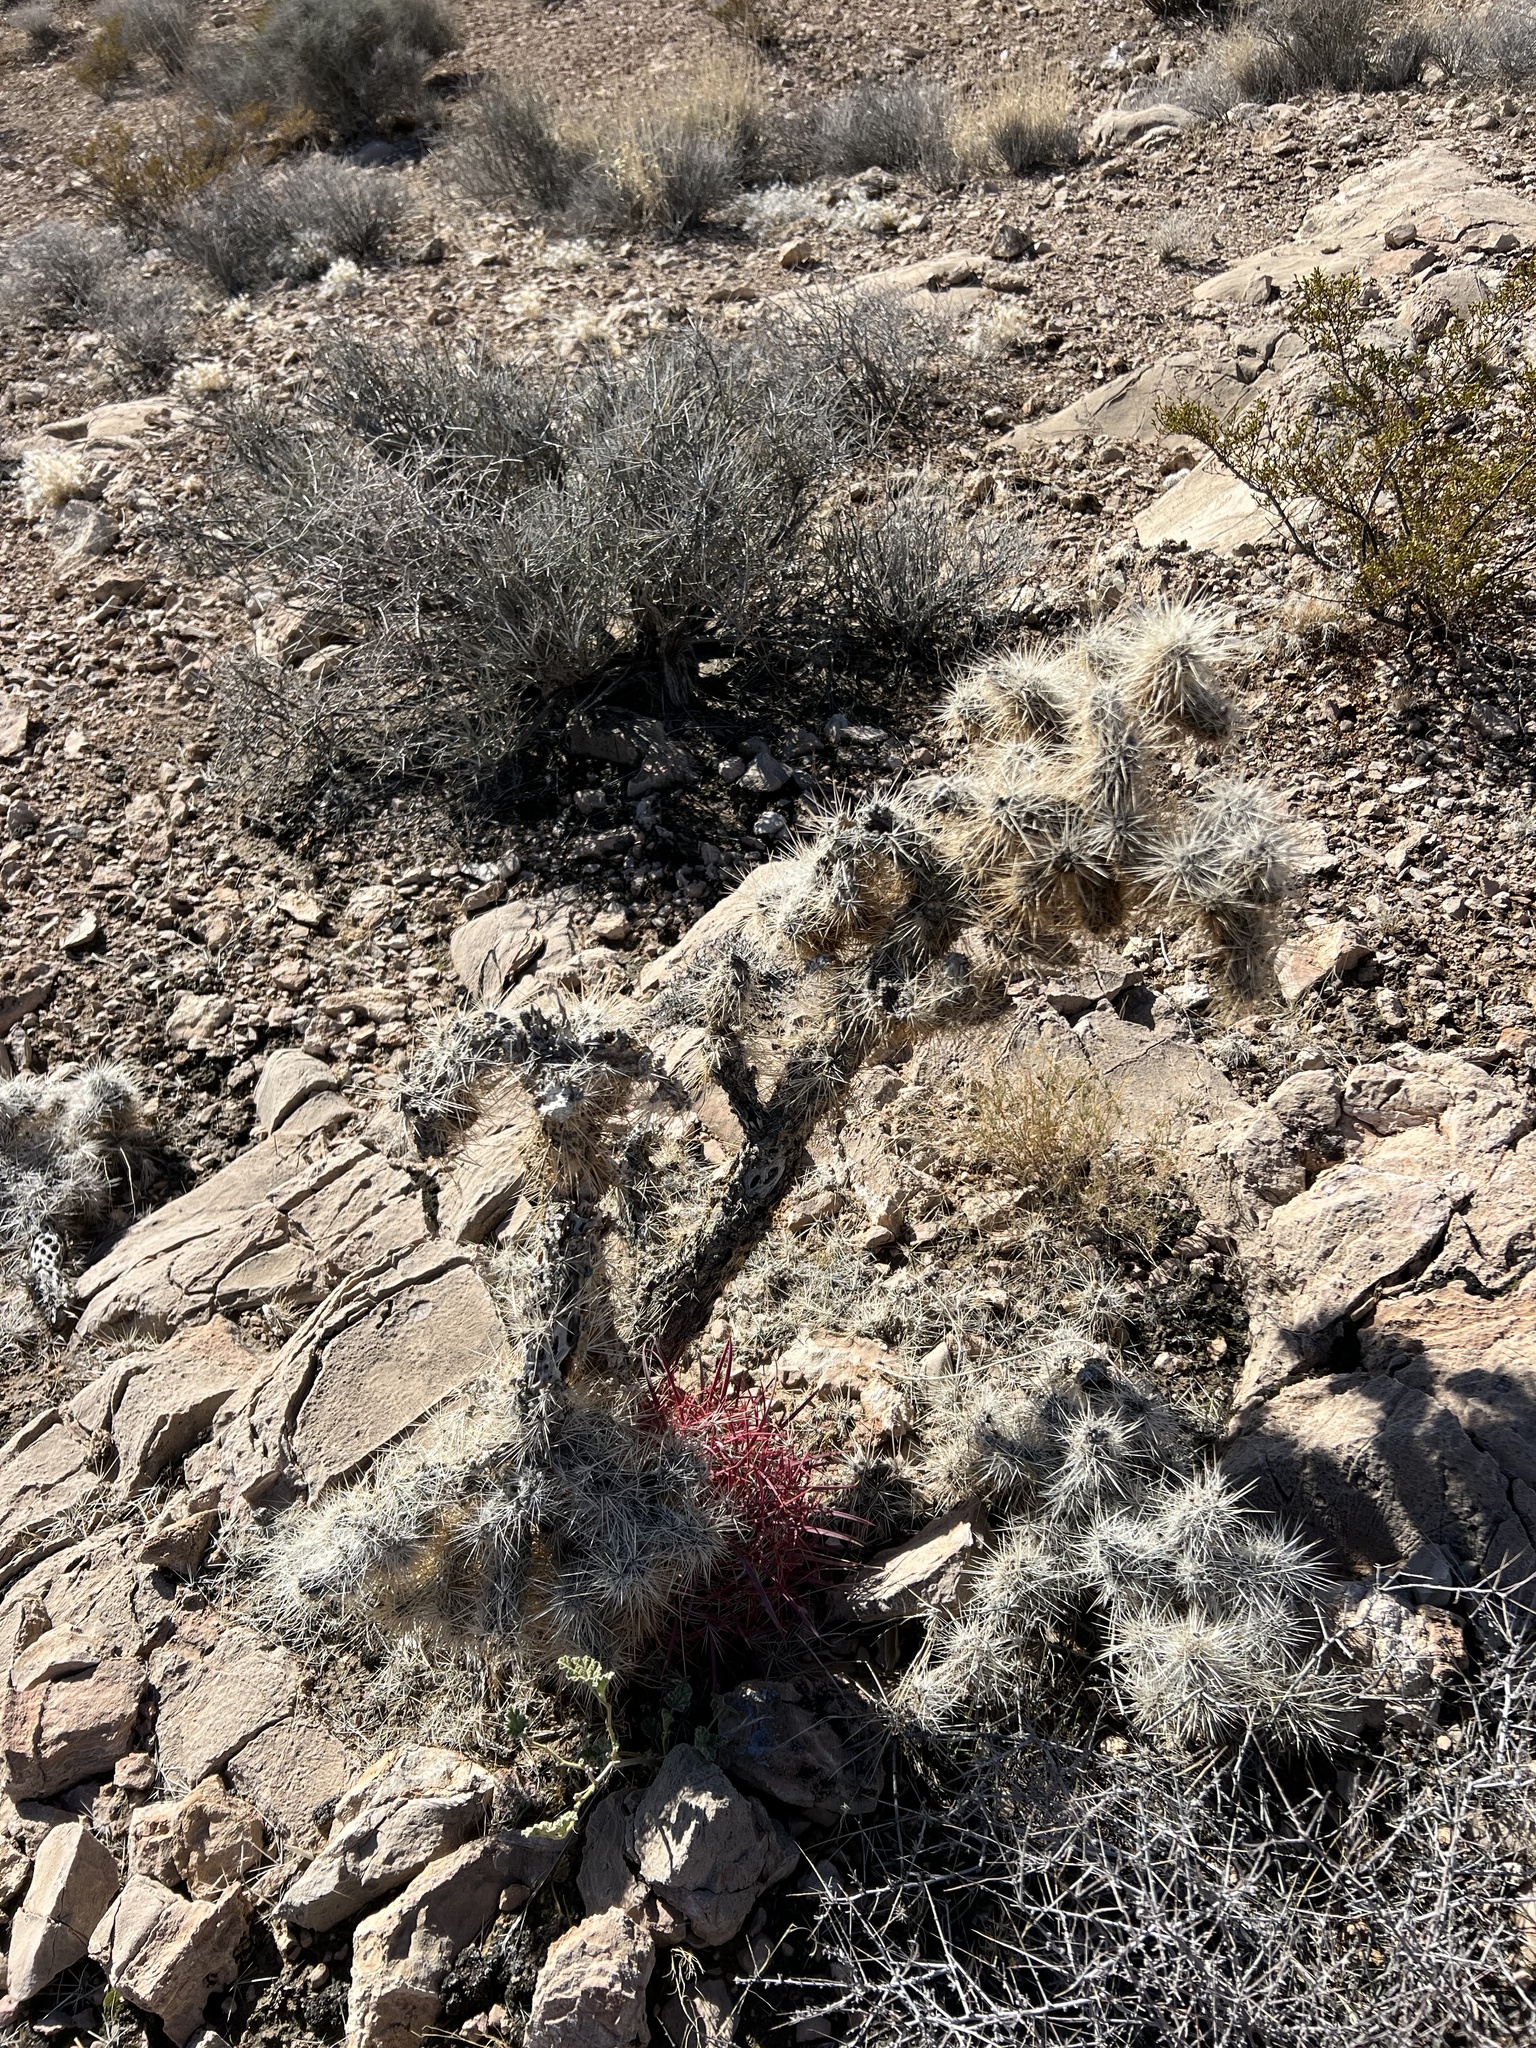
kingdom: Plantae
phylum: Tracheophyta
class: Magnoliopsida
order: Caryophyllales
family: Cactaceae
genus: Cylindropuntia
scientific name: Cylindropuntia echinocarpa
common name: Ground cholla
